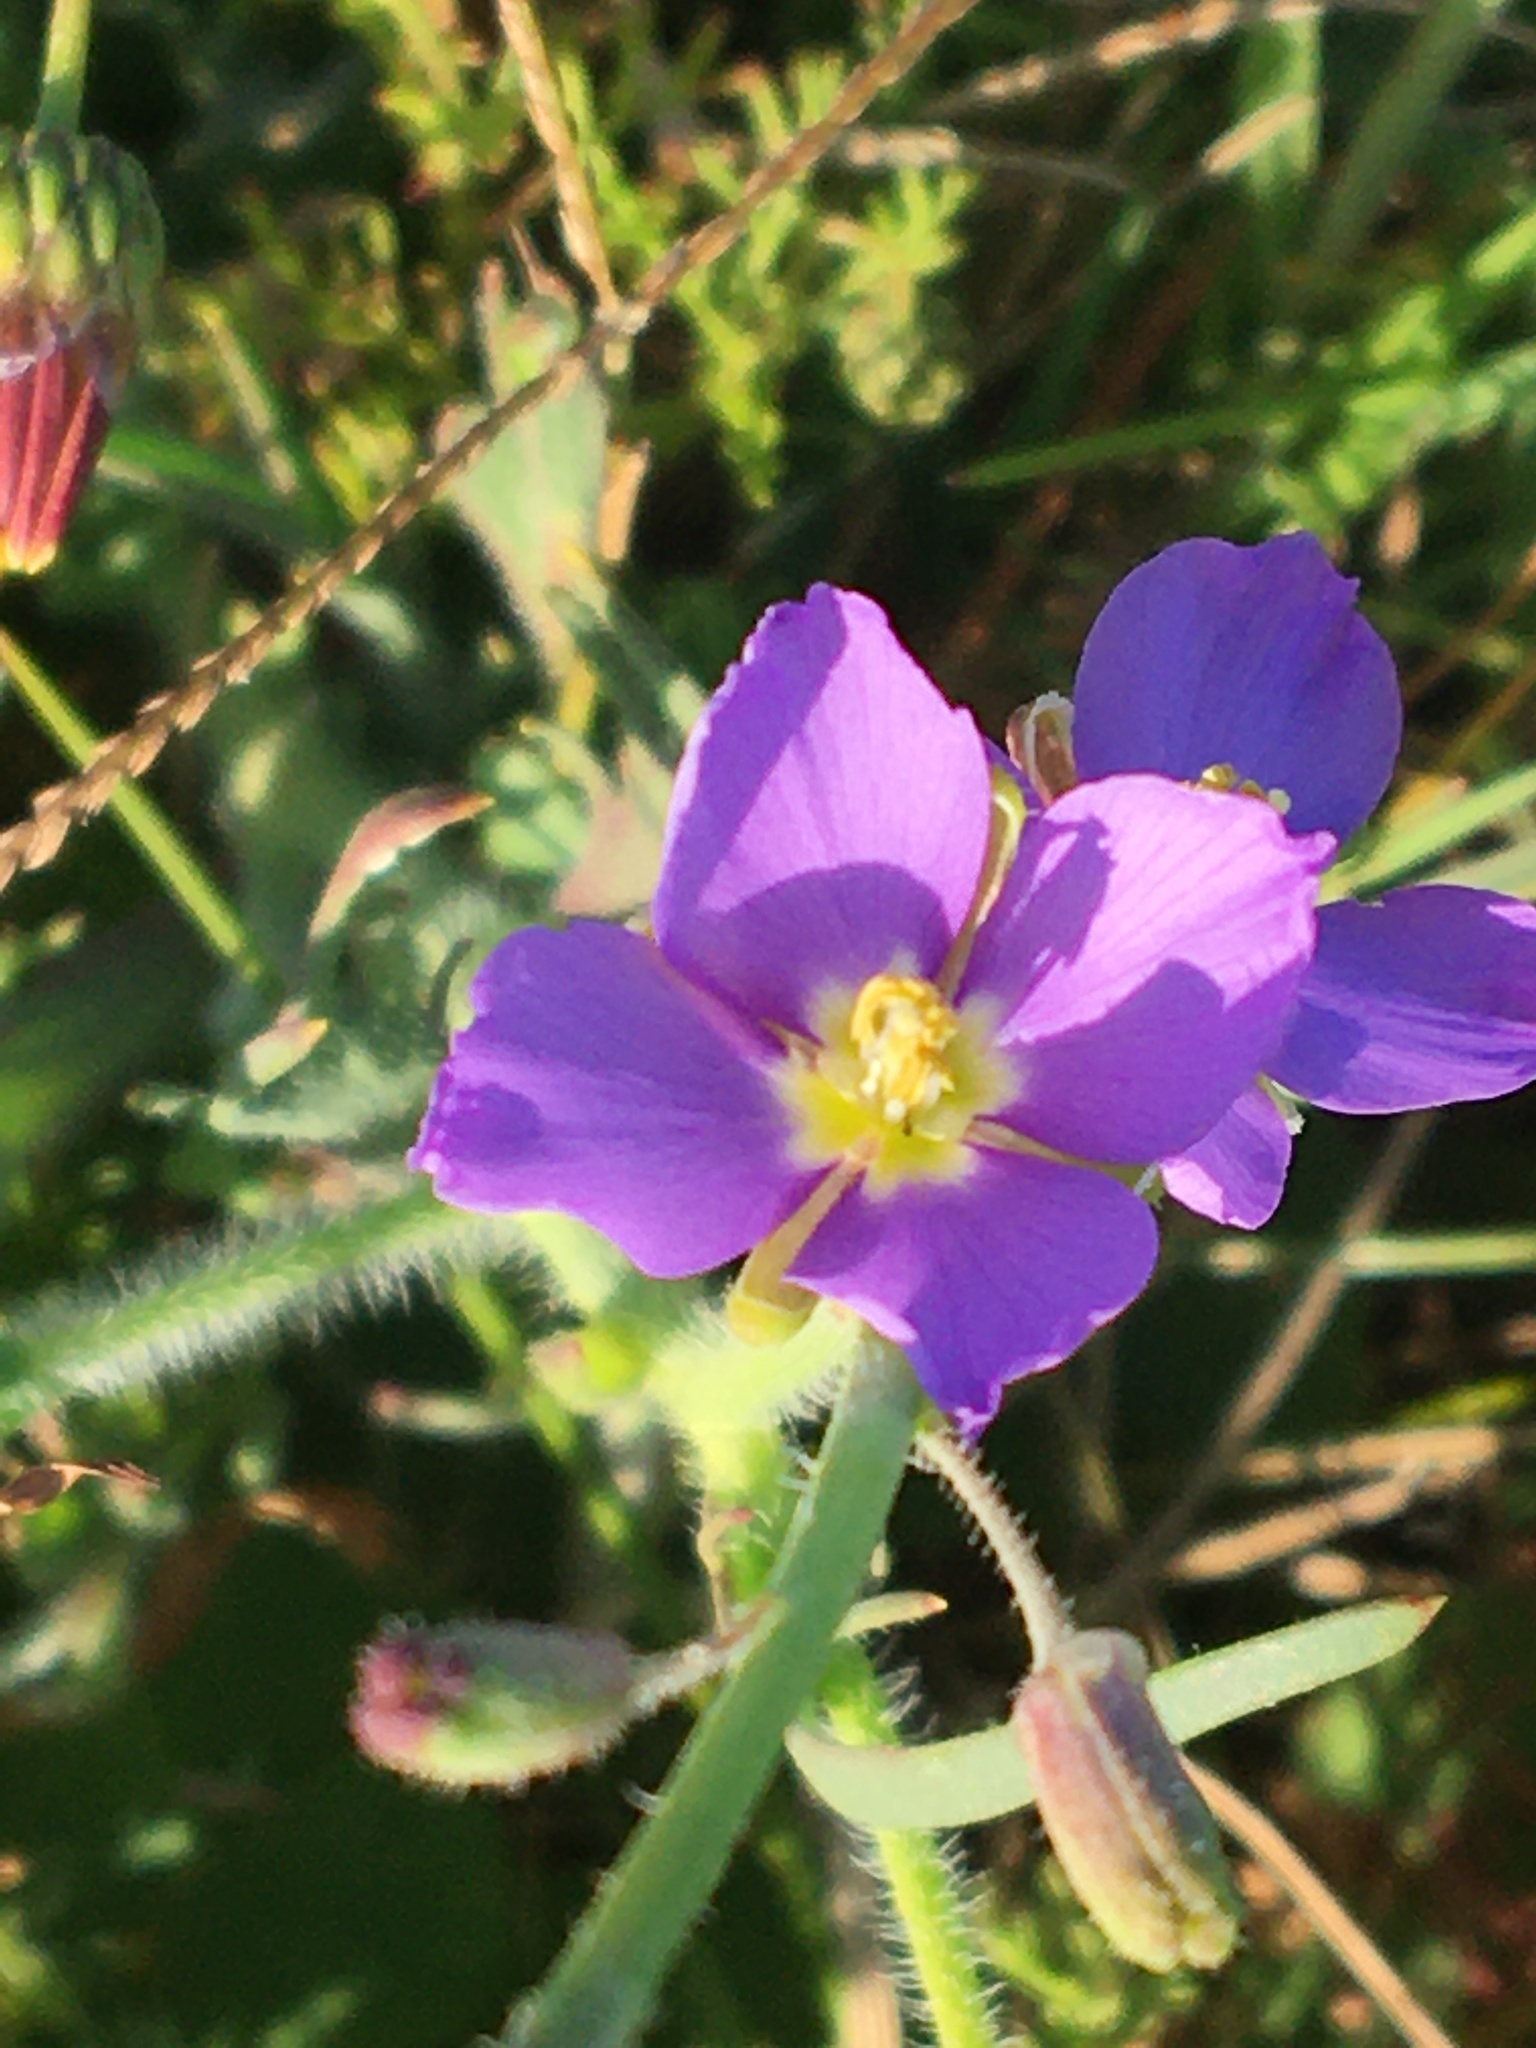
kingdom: Plantae
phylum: Tracheophyta
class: Magnoliopsida
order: Brassicales
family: Brassicaceae
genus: Heliophila
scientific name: Heliophila africana
